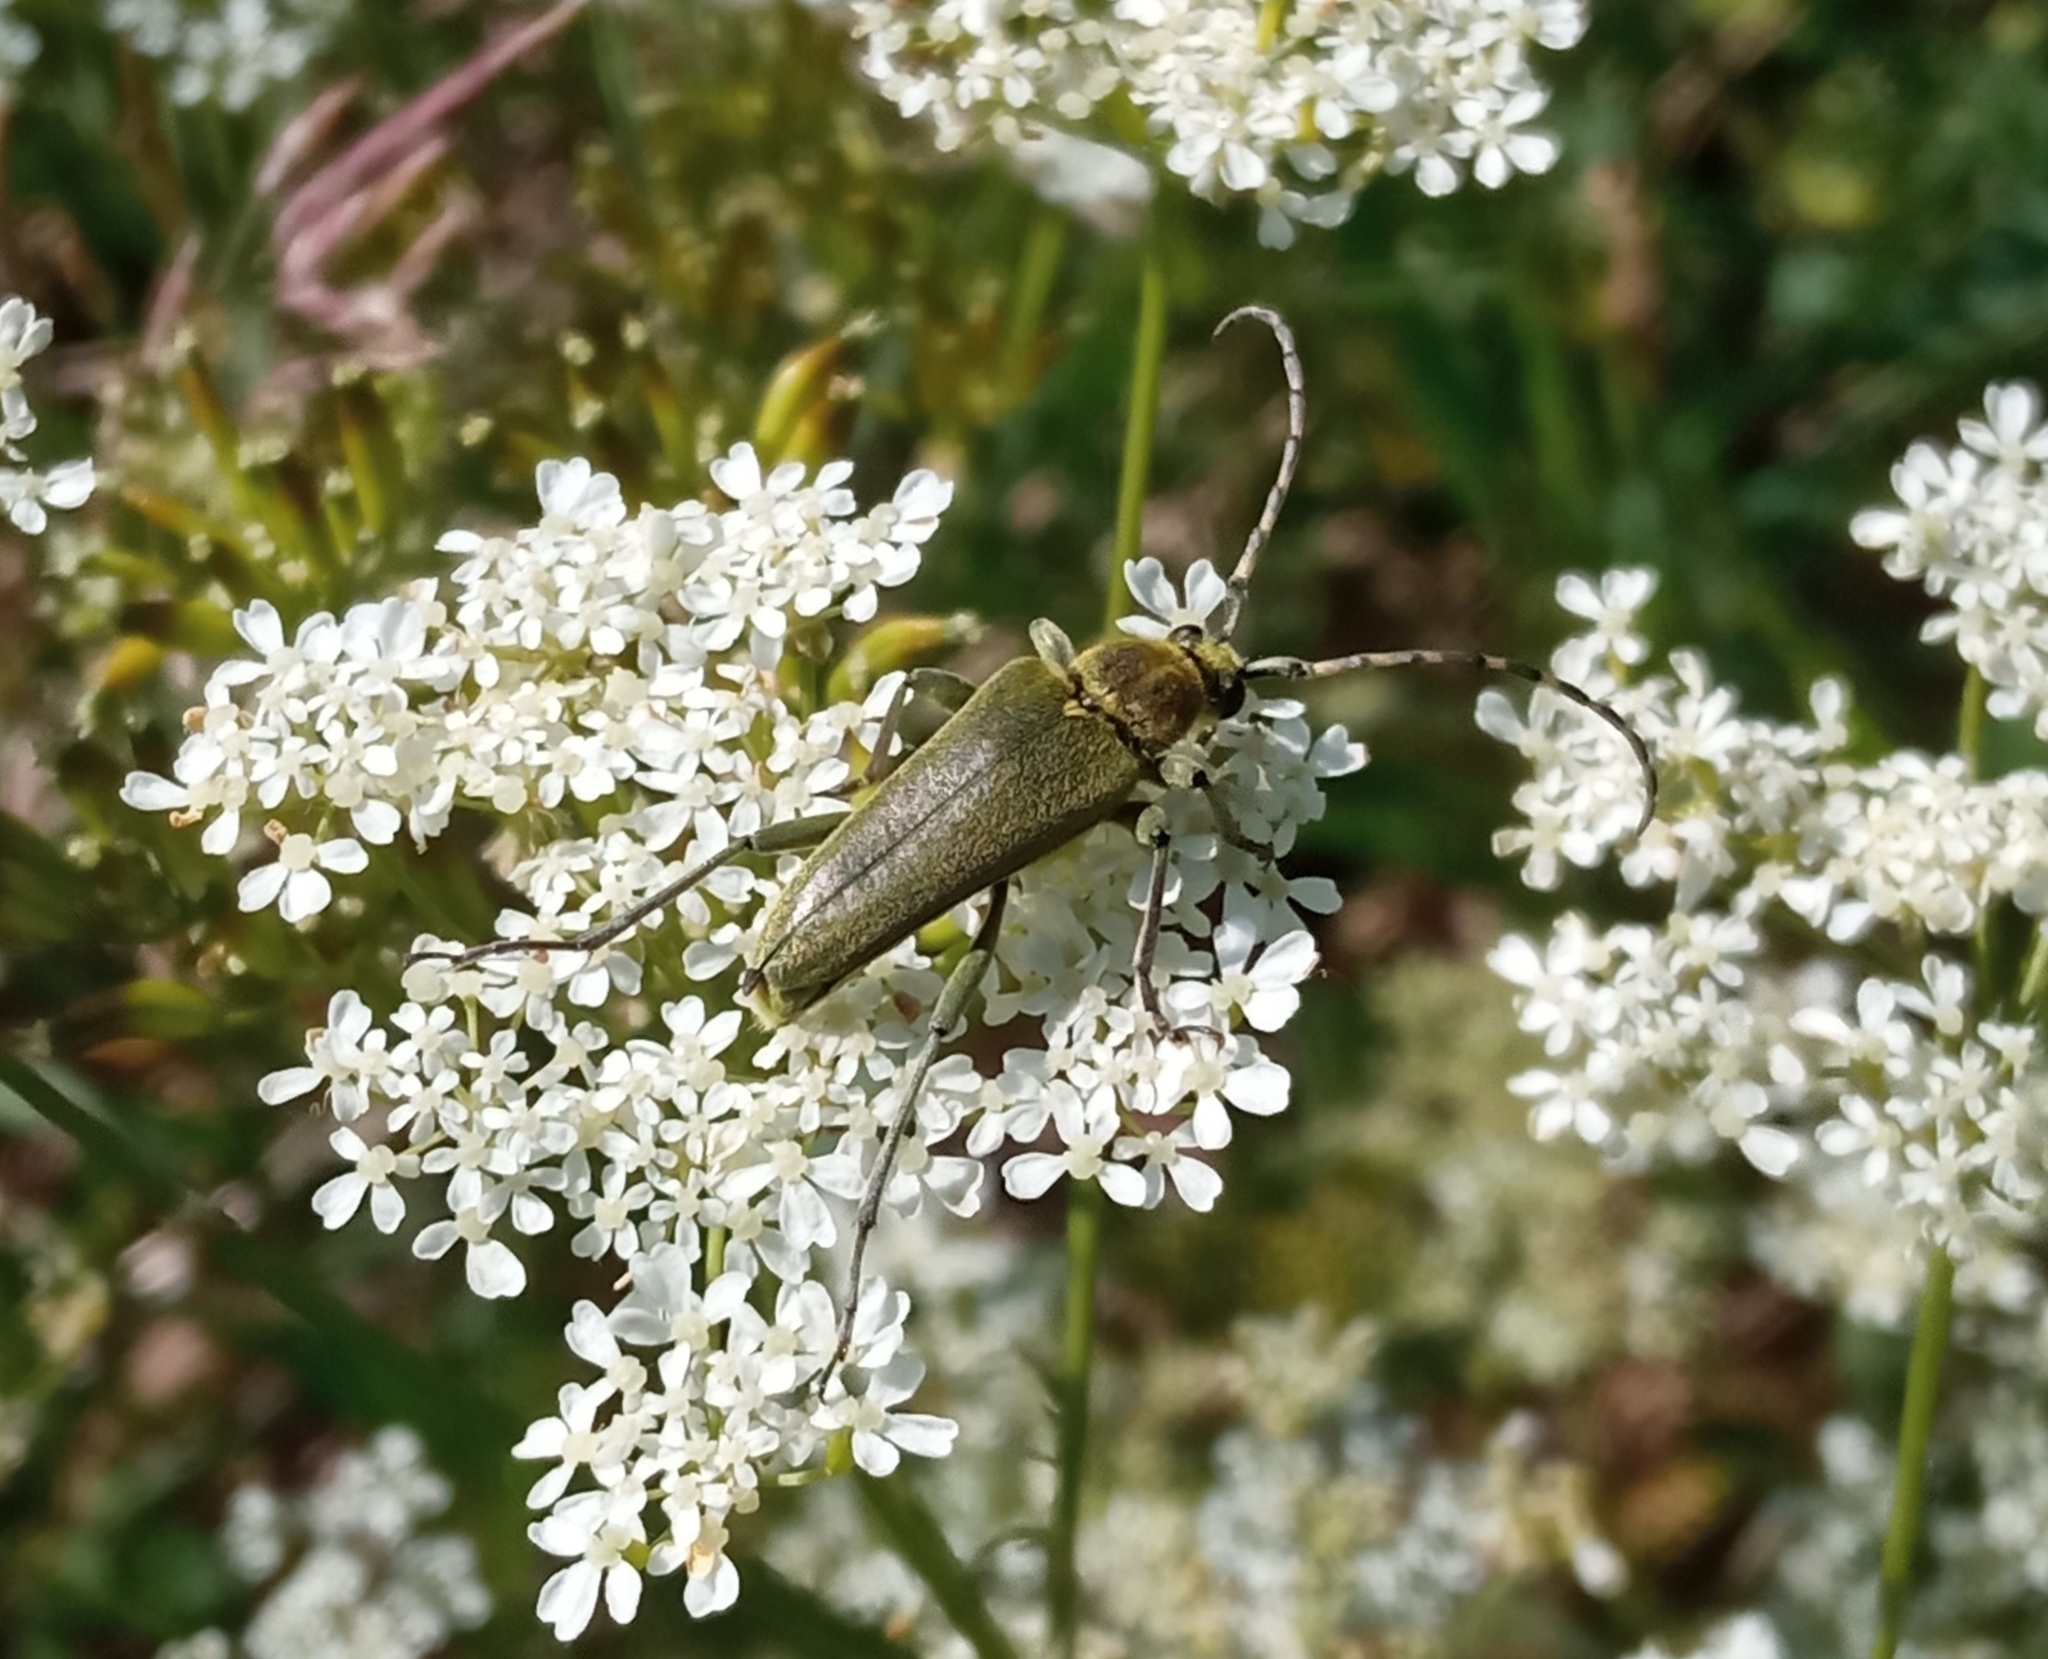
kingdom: Animalia
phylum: Arthropoda
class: Insecta
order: Coleoptera
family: Cerambycidae
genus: Lepturobosca
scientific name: Lepturobosca virens
